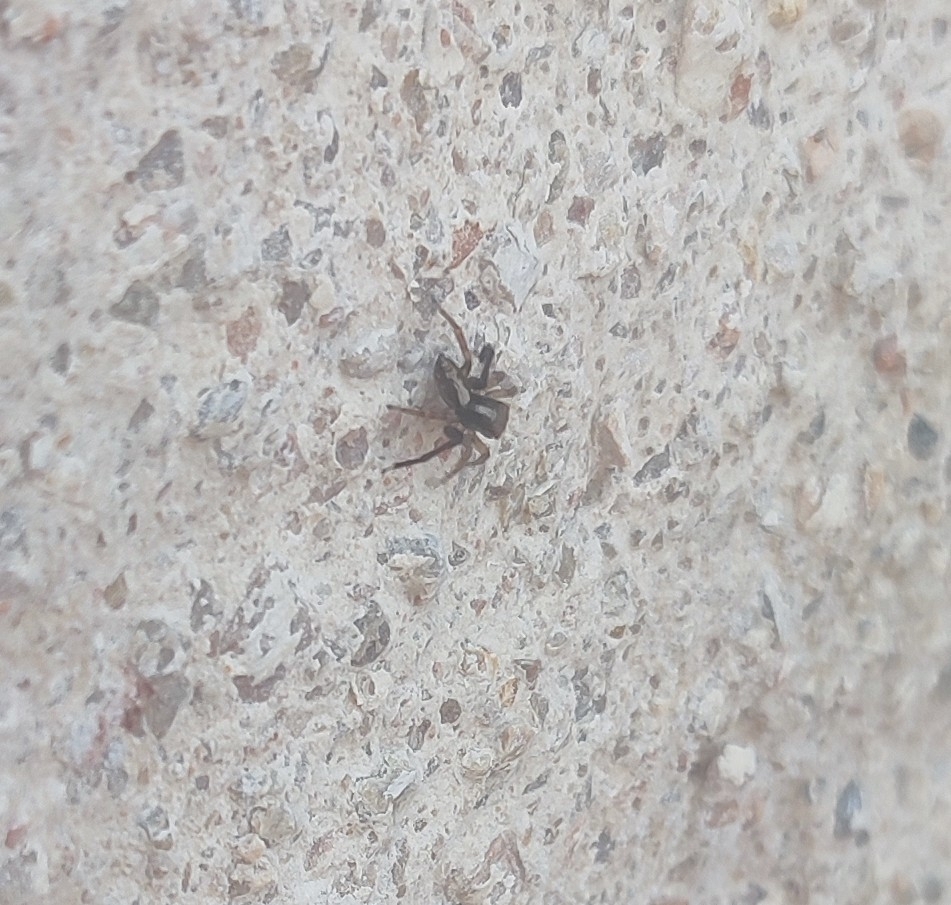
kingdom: Animalia
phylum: Arthropoda
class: Arachnida
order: Araneae
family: Salticidae
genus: Saitis
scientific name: Saitis barbipes
